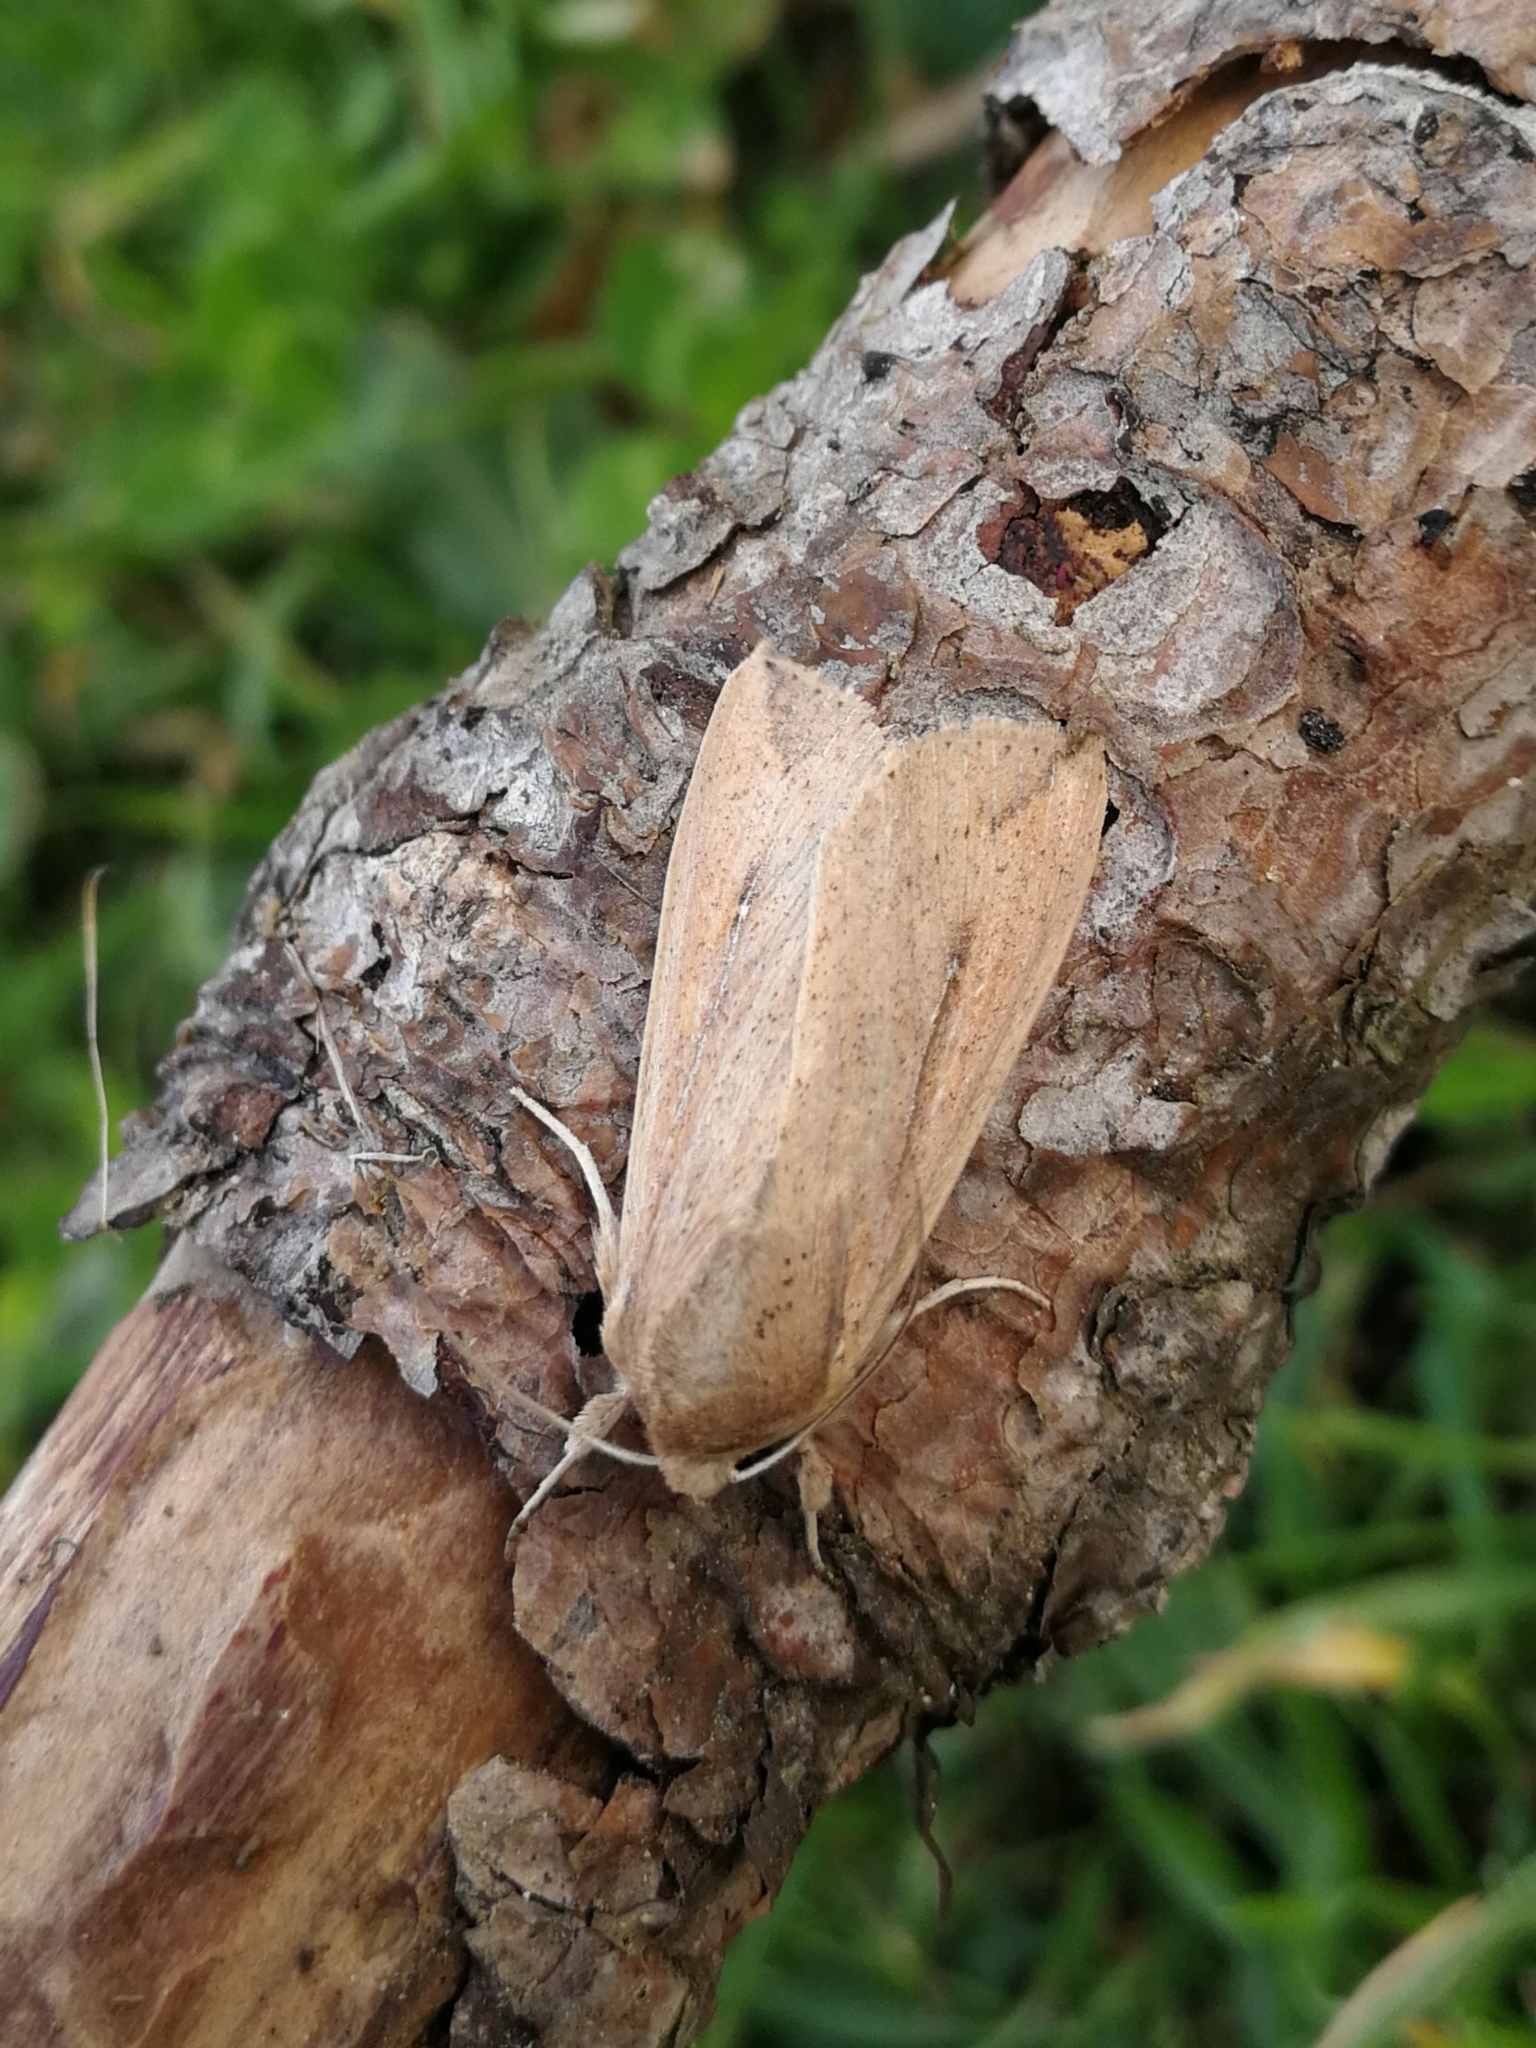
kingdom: Animalia
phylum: Arthropoda
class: Insecta
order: Lepidoptera
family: Noctuidae
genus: Mythimna
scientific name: Mythimna unipuncta
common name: White-speck
